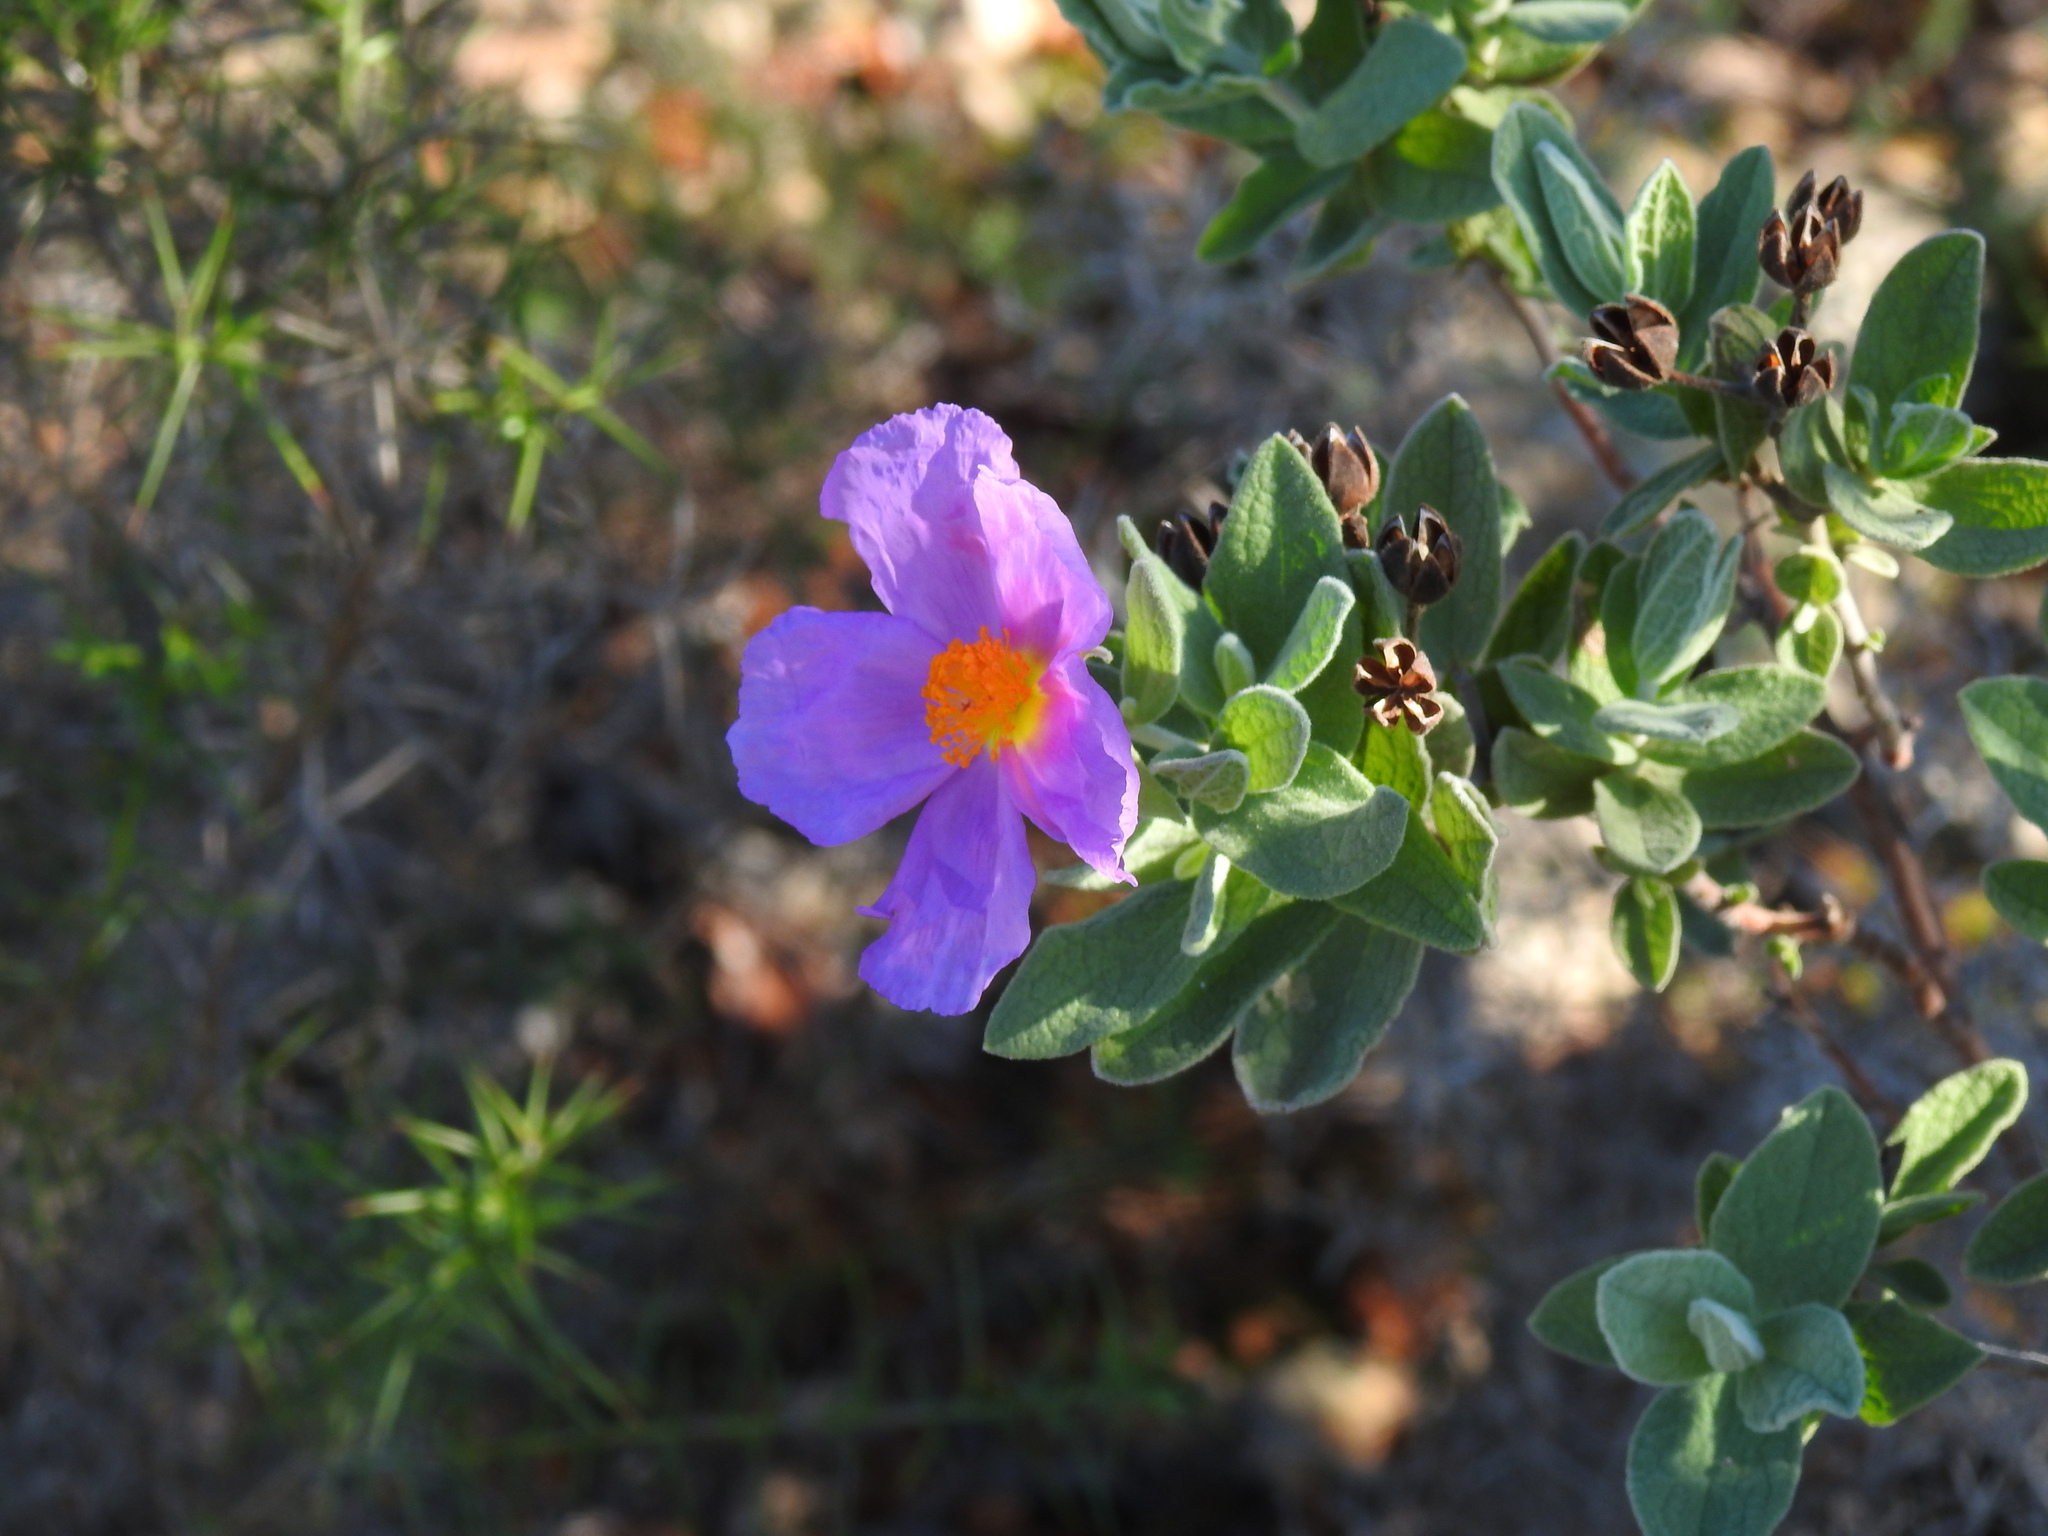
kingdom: Plantae
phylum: Tracheophyta
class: Magnoliopsida
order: Malvales
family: Cistaceae
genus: Cistus
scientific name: Cistus albidus
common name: White-leaf rock-rose
